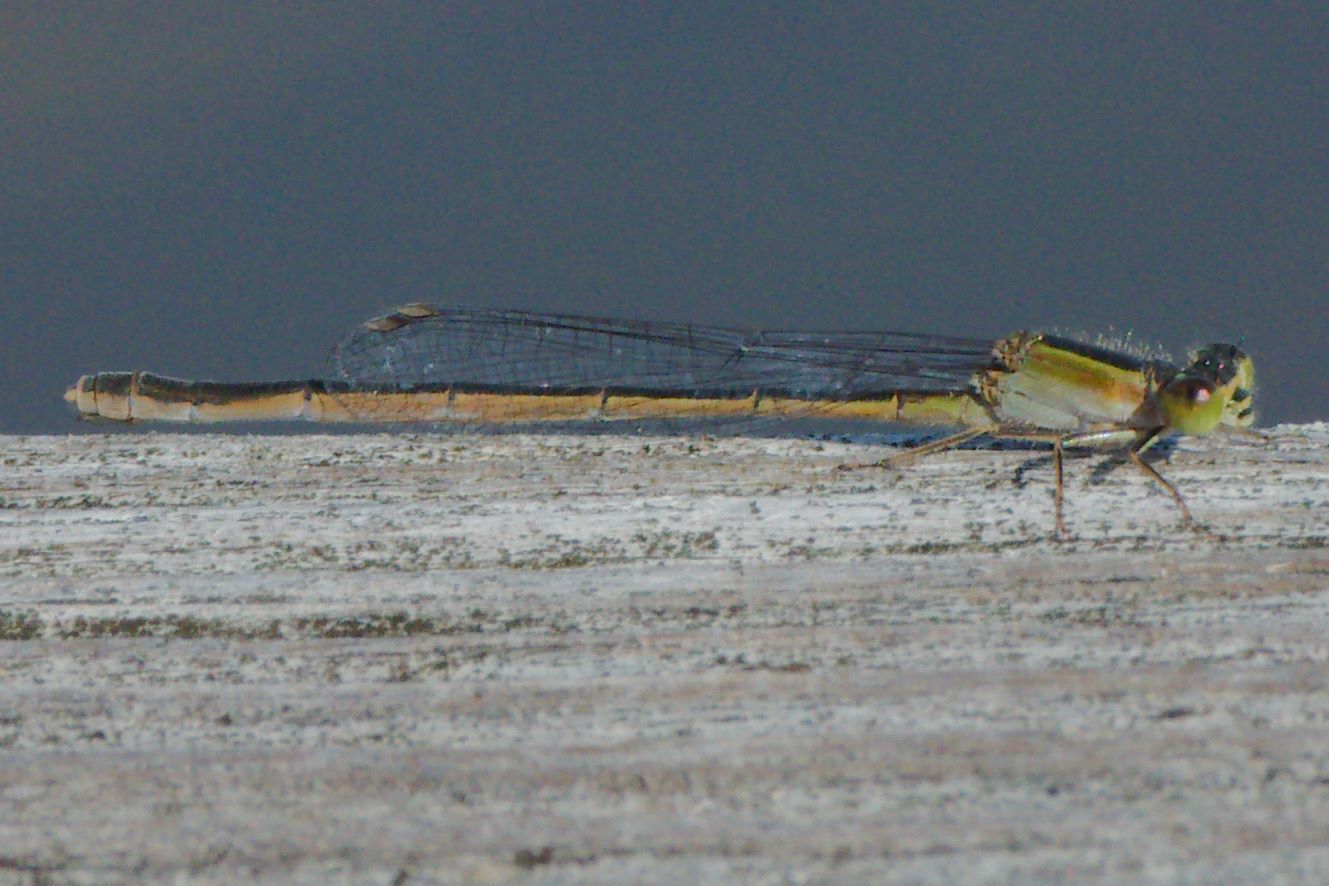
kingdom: Animalia
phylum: Arthropoda
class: Insecta
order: Odonata
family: Coenagrionidae
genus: Ischnura
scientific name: Ischnura ramburii
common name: Rambur's forktail
